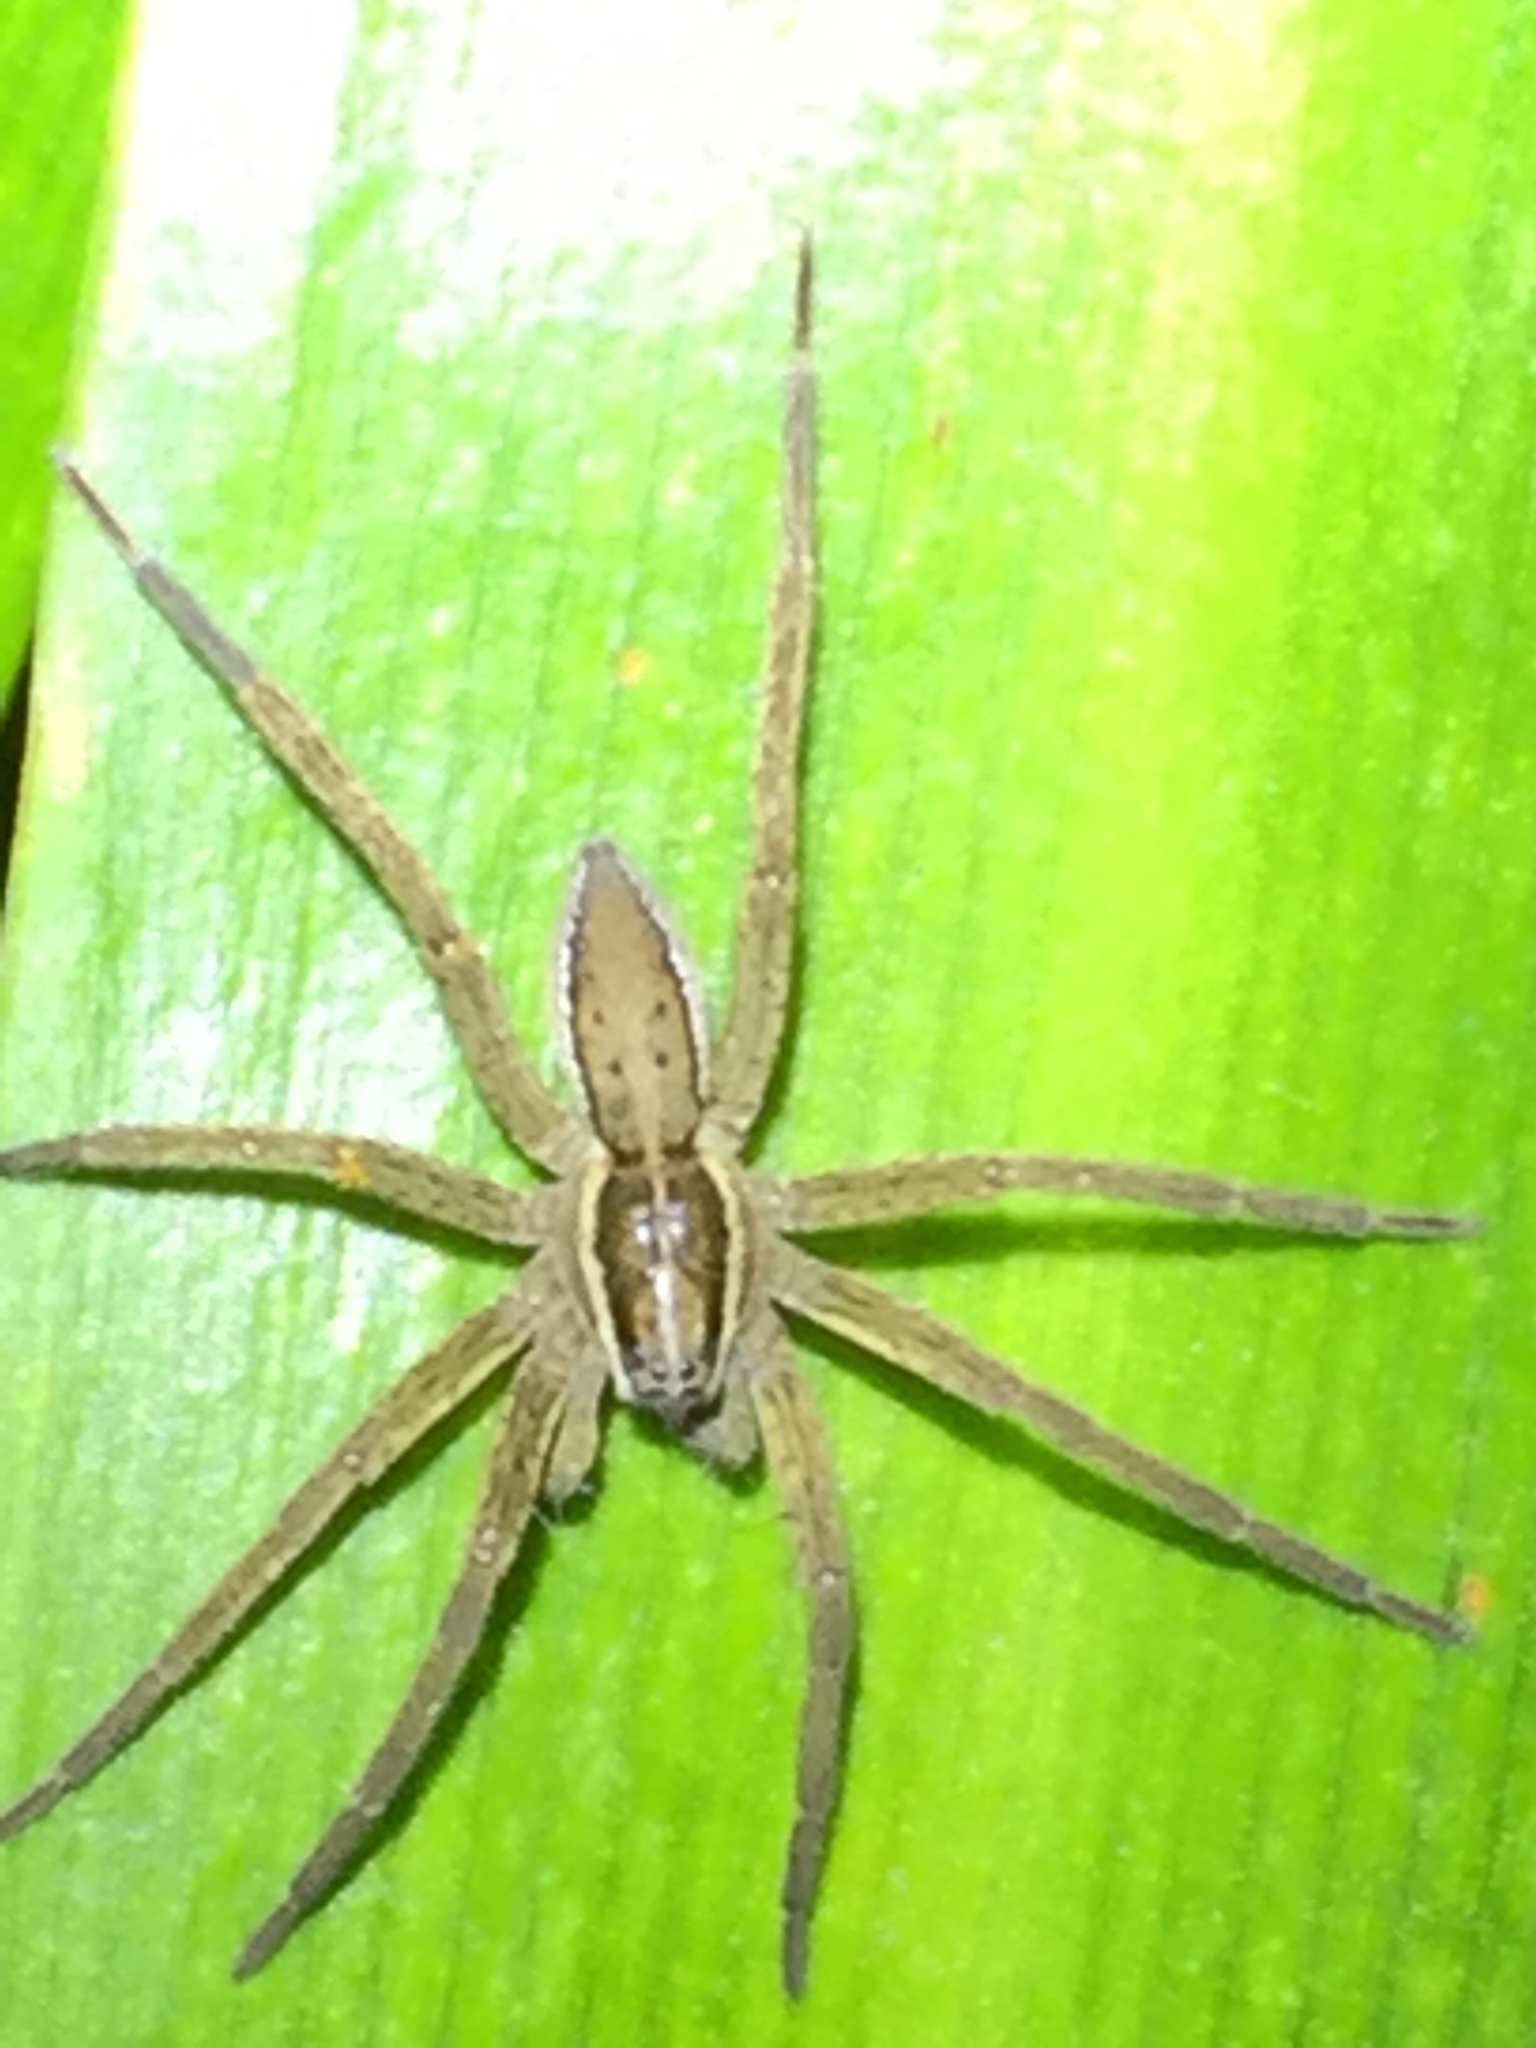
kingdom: Animalia
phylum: Arthropoda
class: Arachnida
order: Araneae
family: Pisauridae
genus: Dolomedes
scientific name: Dolomedes minor
